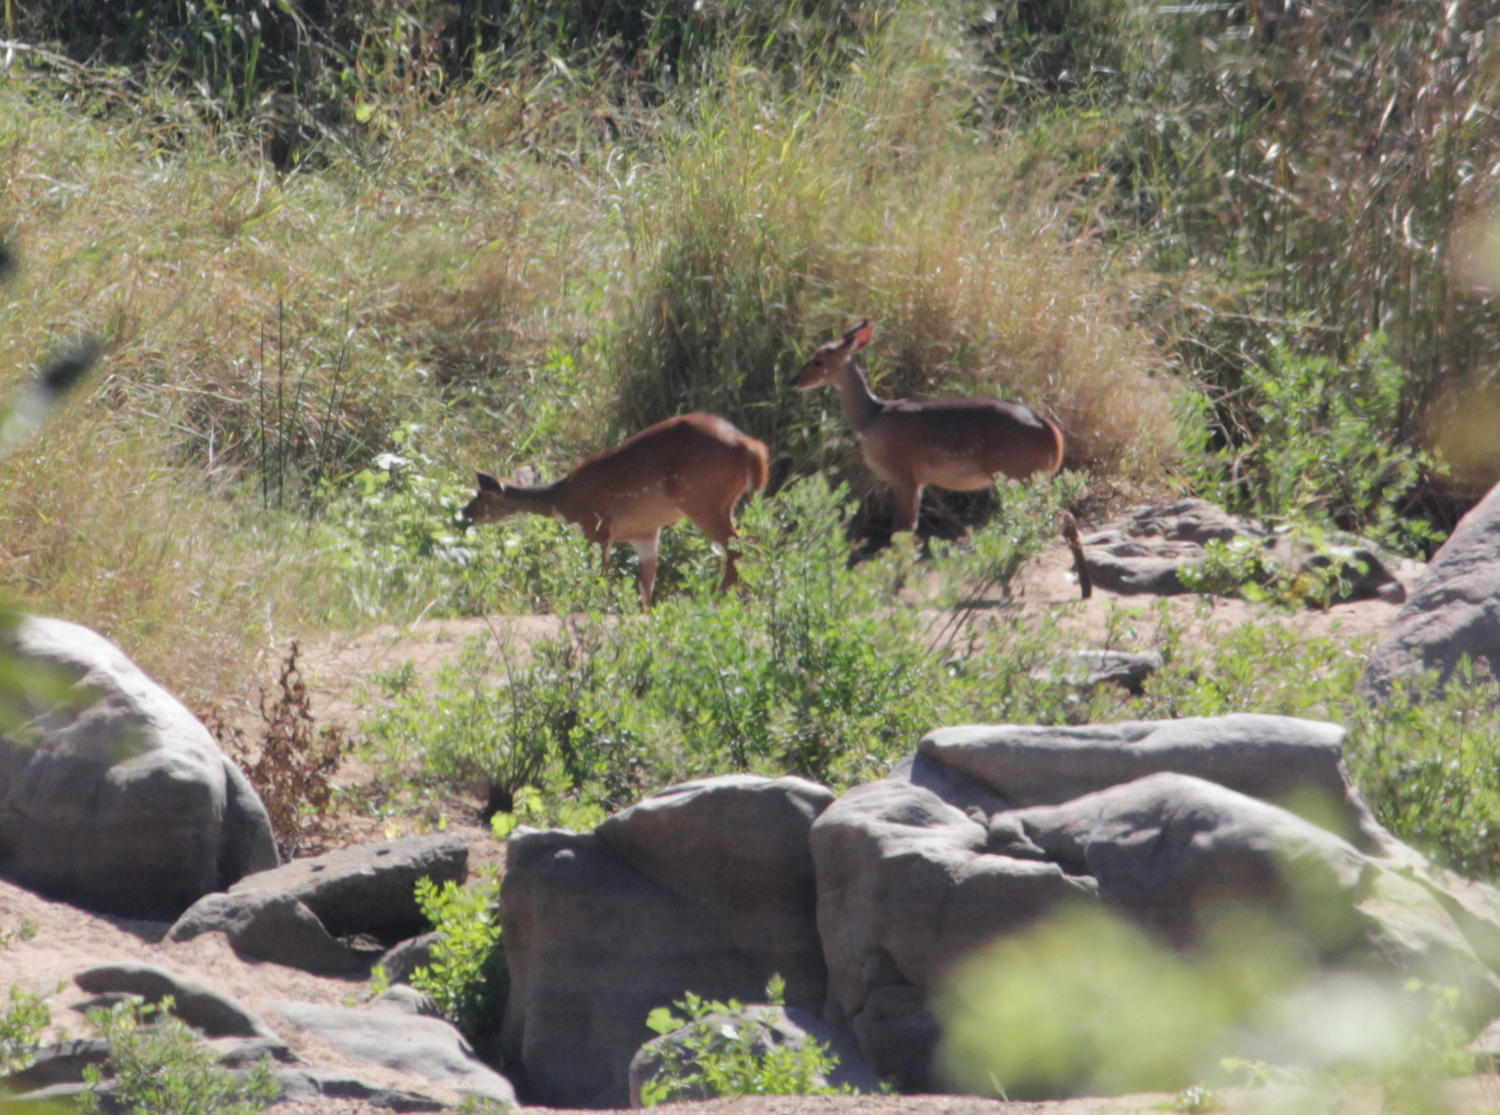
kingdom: Animalia
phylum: Chordata
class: Mammalia
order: Artiodactyla
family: Bovidae
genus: Tragelaphus
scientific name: Tragelaphus scriptus
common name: Bushbuck
